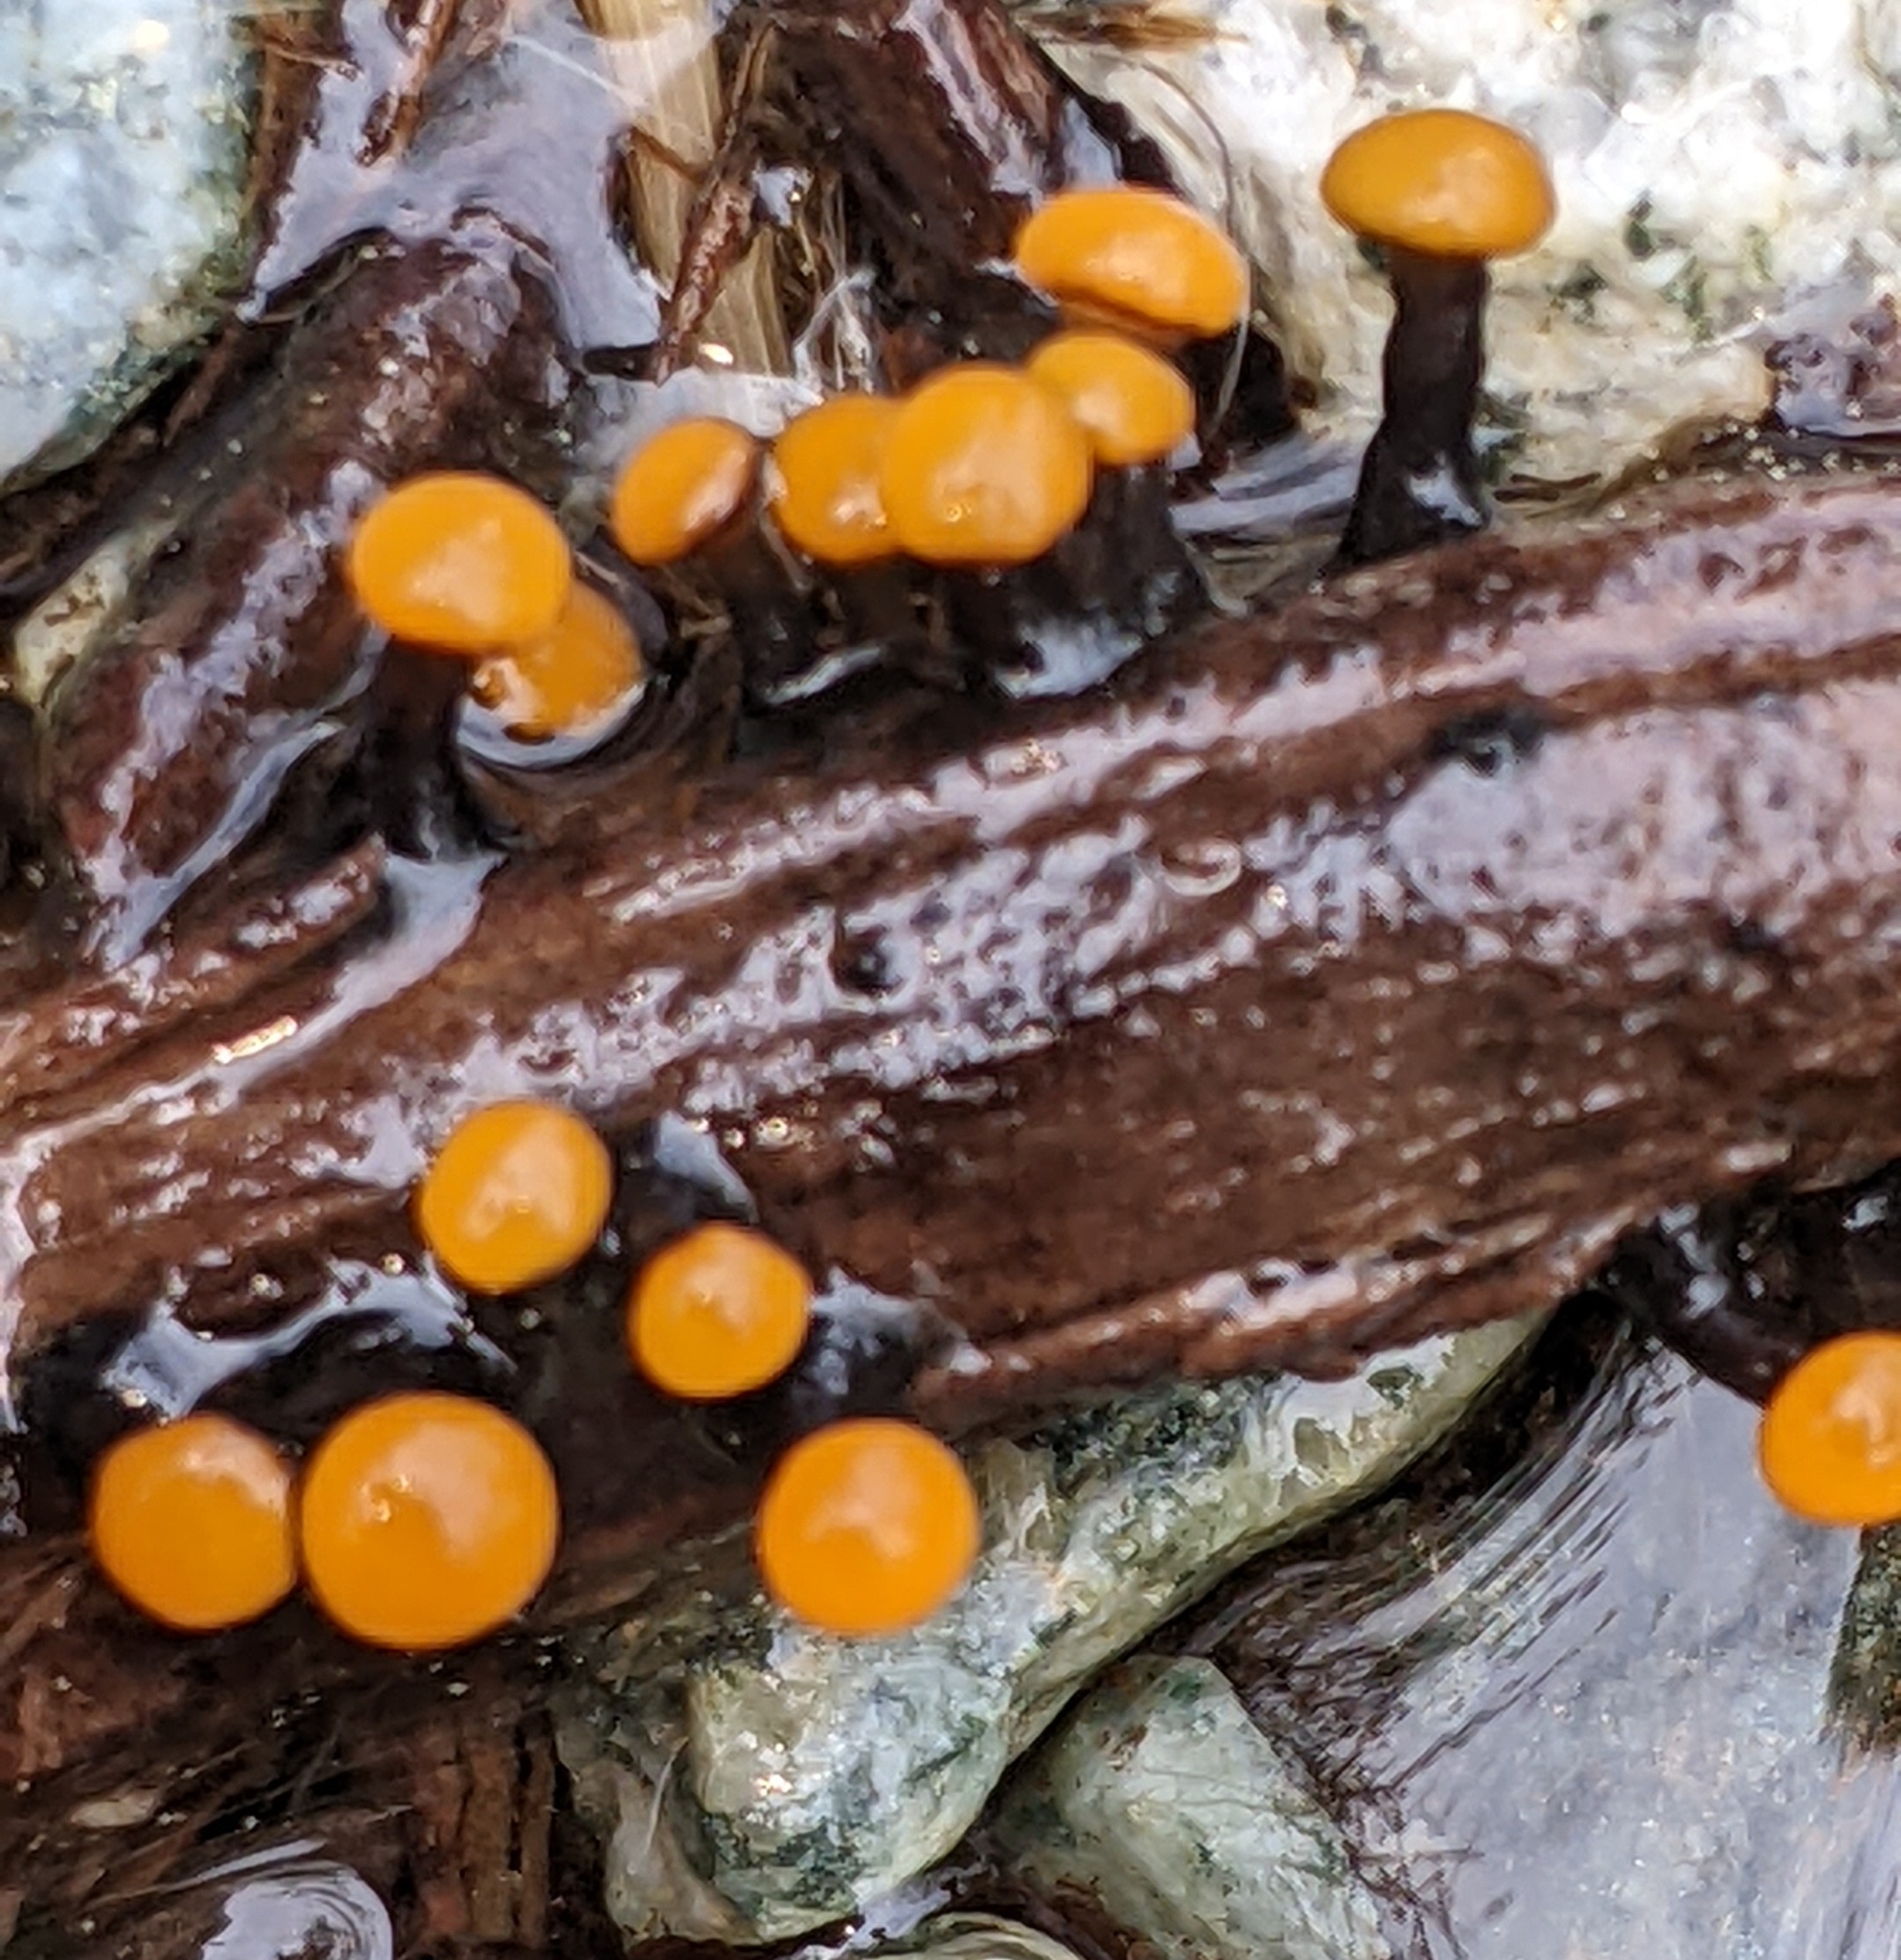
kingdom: Fungi
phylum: Ascomycota
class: Leotiomycetes
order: Helotiales
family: Vibrisseaceae
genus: Vibrissea
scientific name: Vibrissea truncorum
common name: Stream beacon
